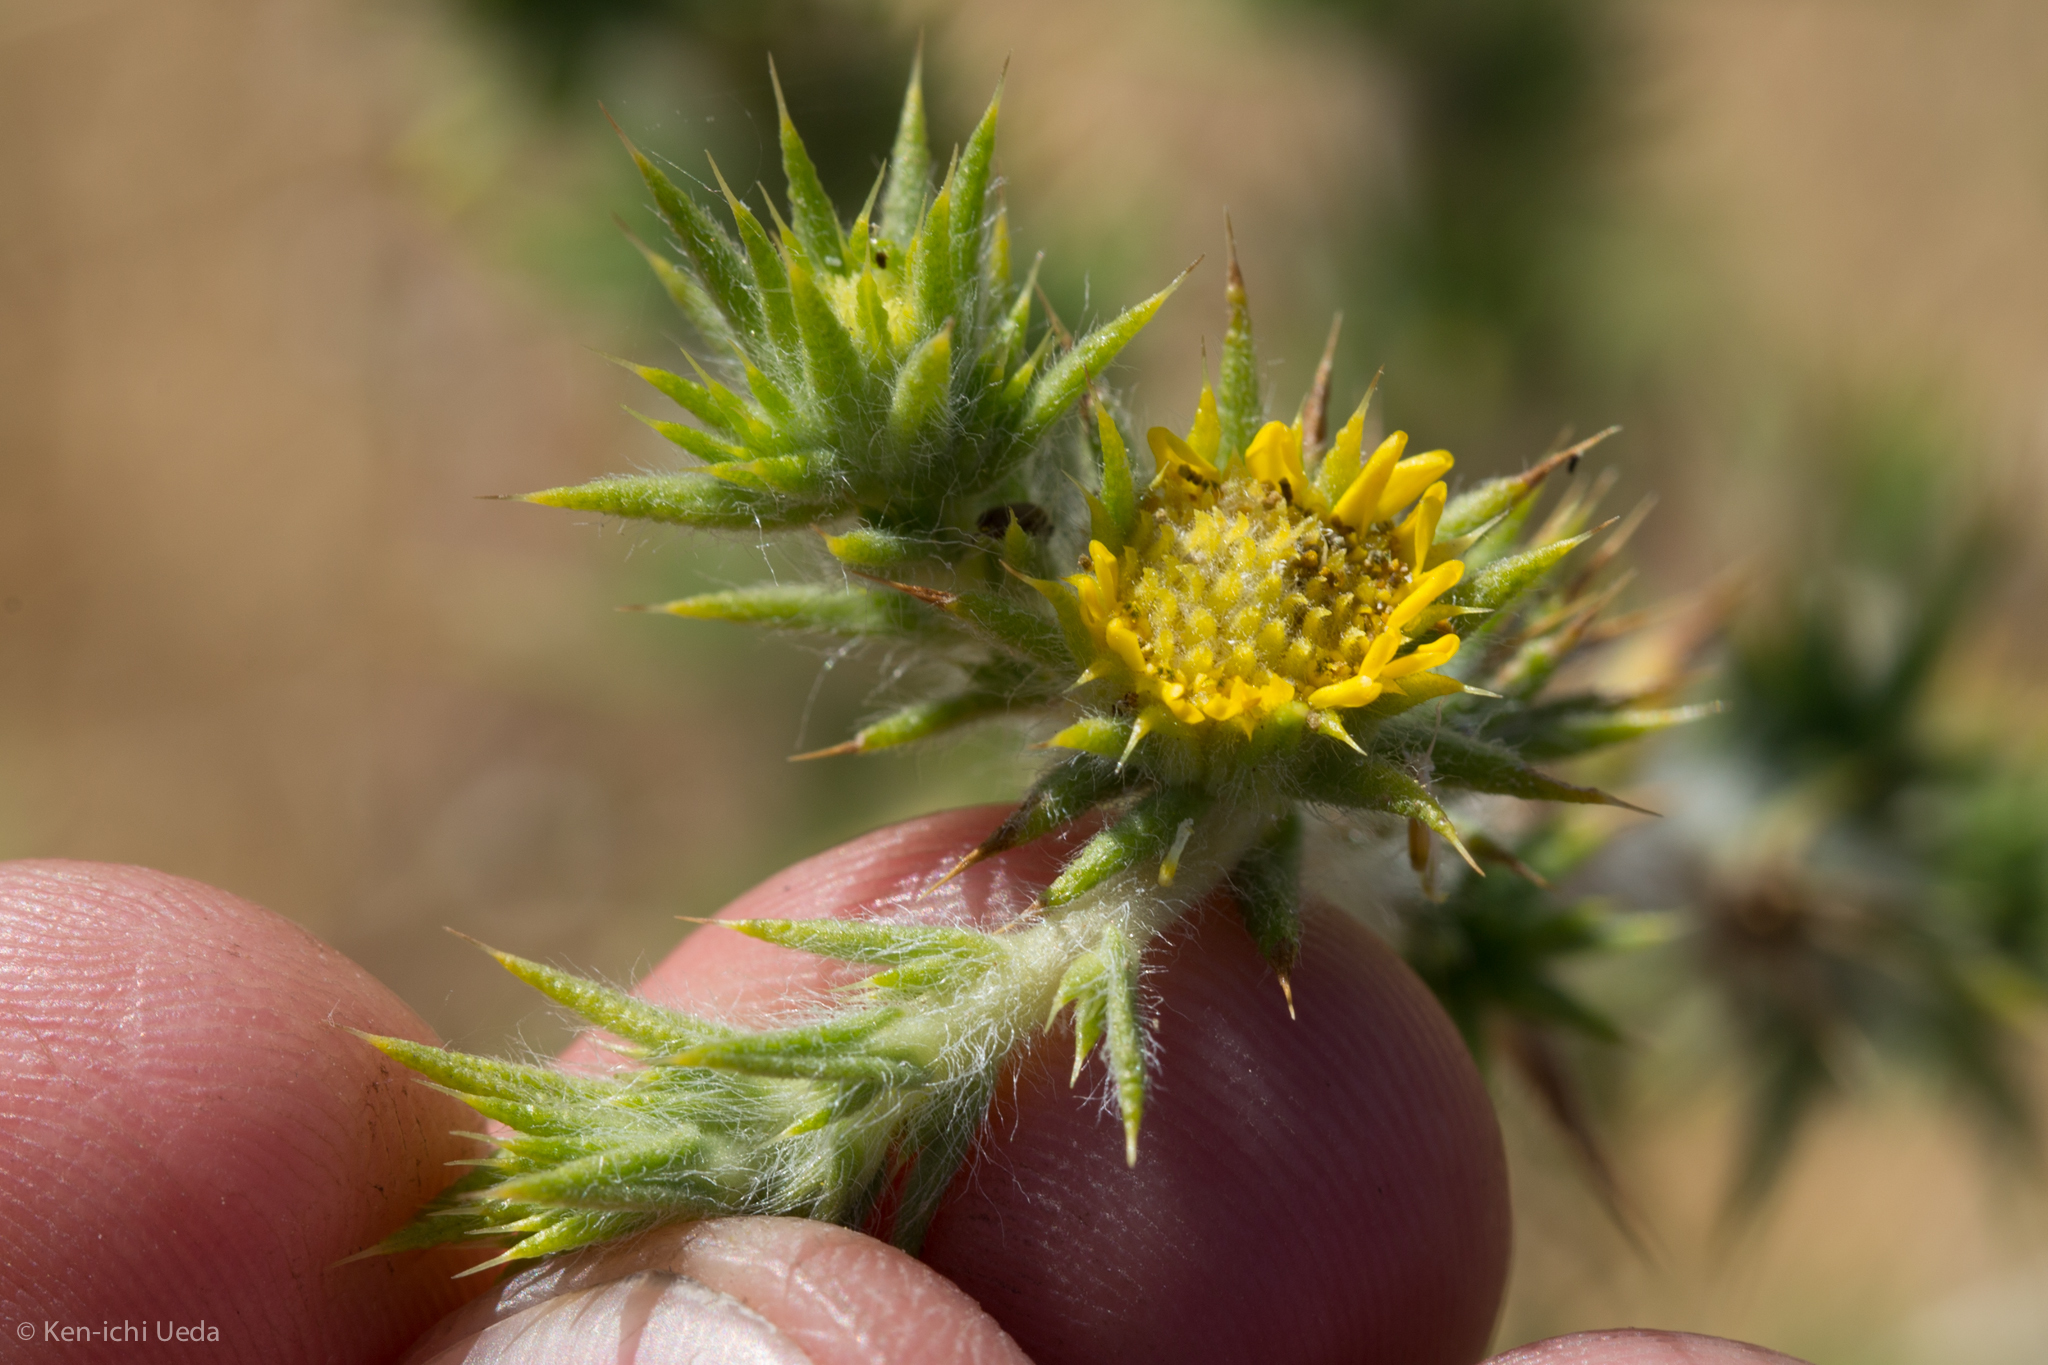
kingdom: Plantae
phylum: Tracheophyta
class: Magnoliopsida
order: Asterales
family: Asteraceae
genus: Centromadia
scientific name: Centromadia parryi
